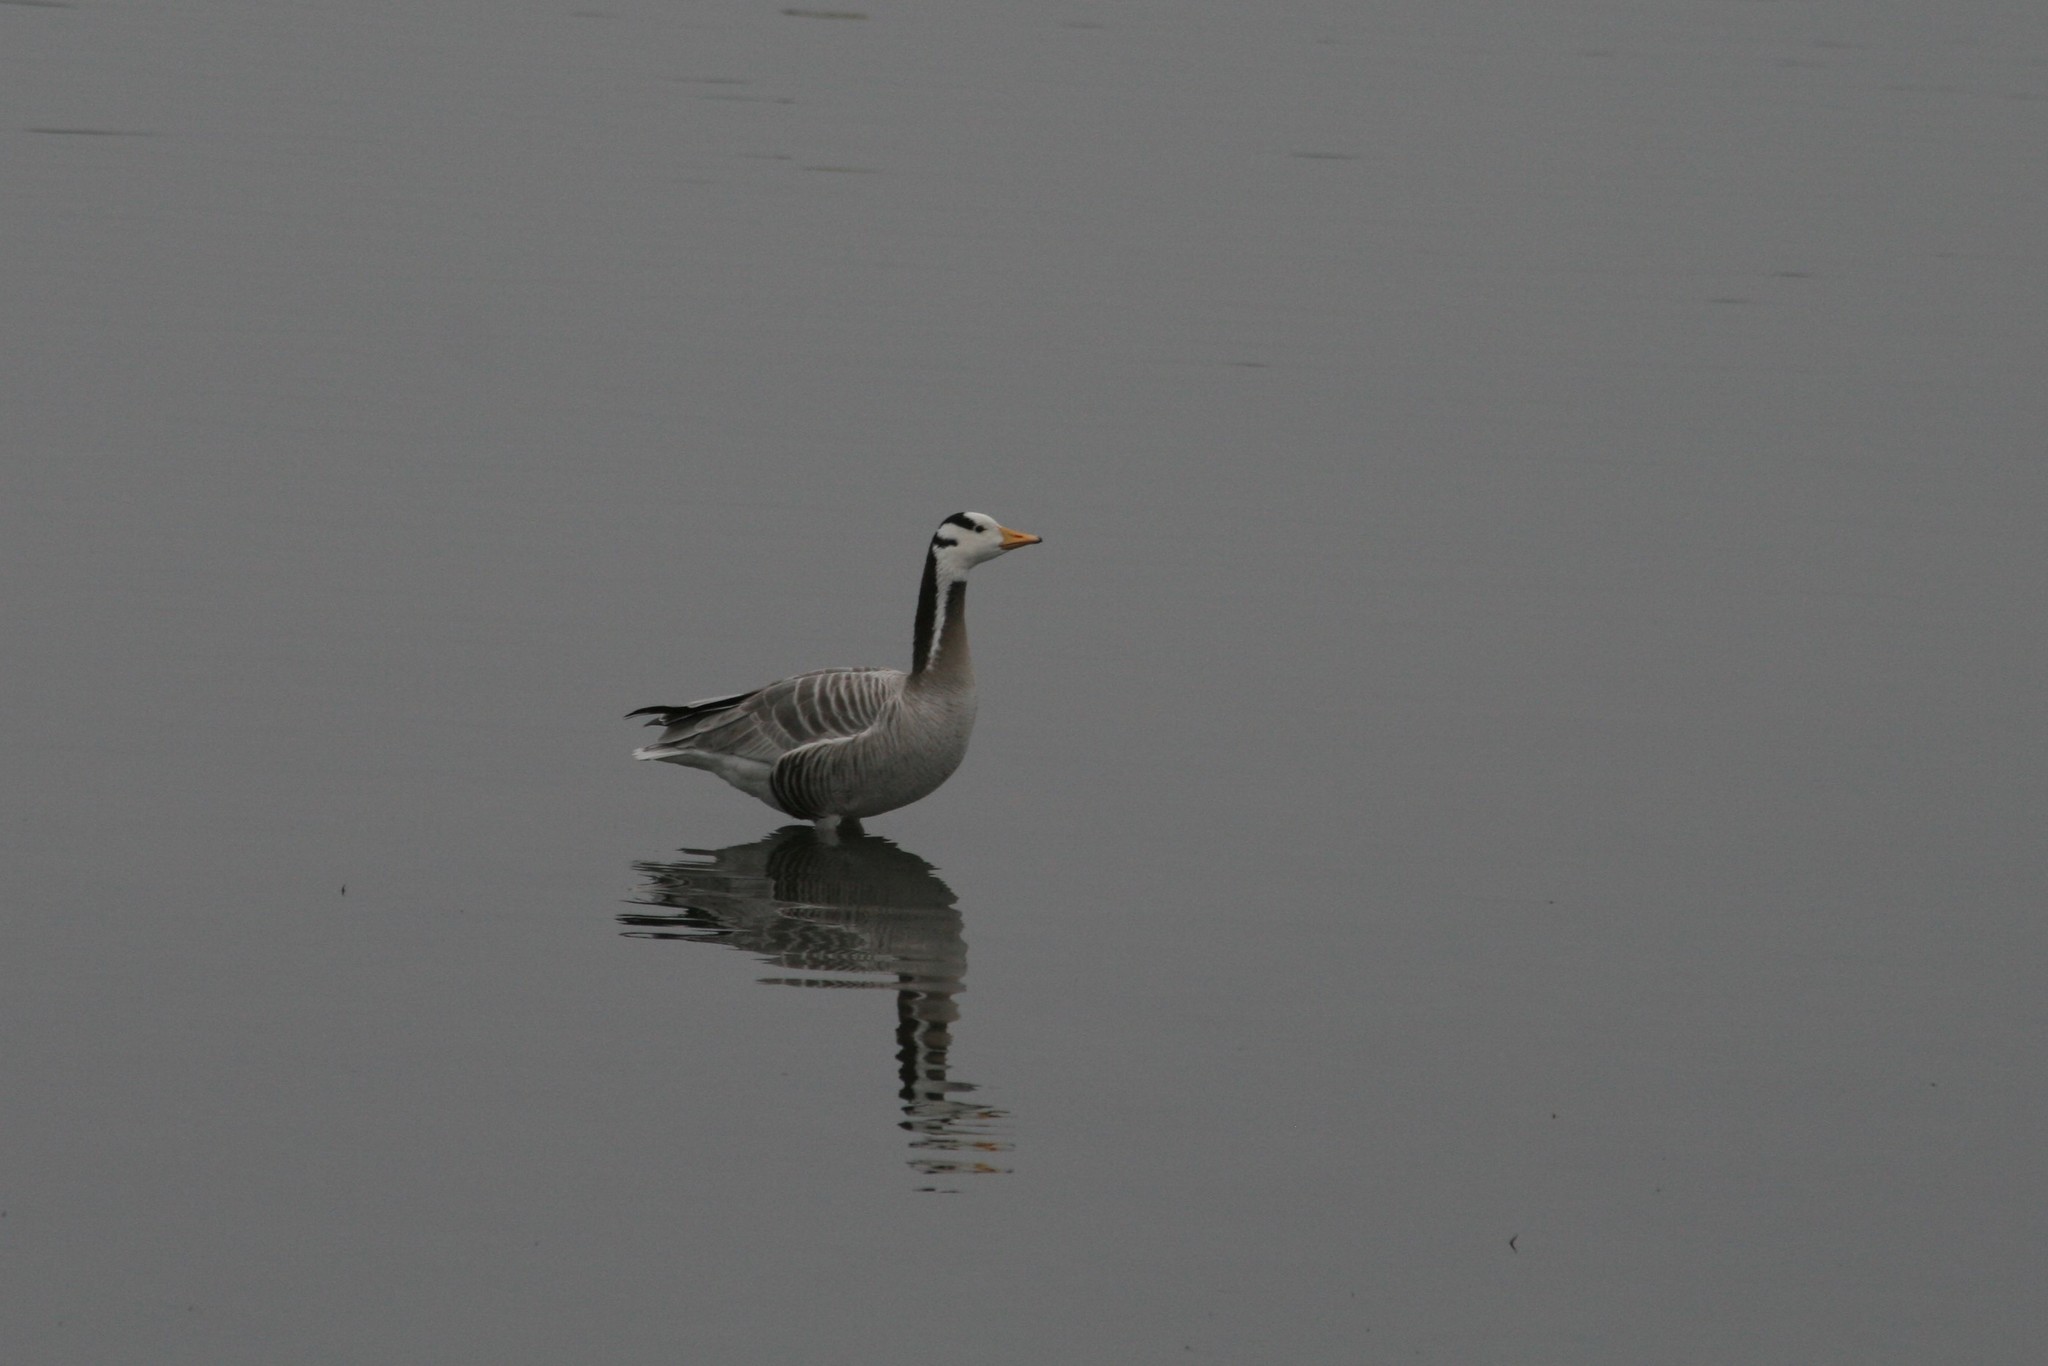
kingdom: Animalia
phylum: Chordata
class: Aves
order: Anseriformes
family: Anatidae
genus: Anser
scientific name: Anser indicus
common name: Bar-headed goose
